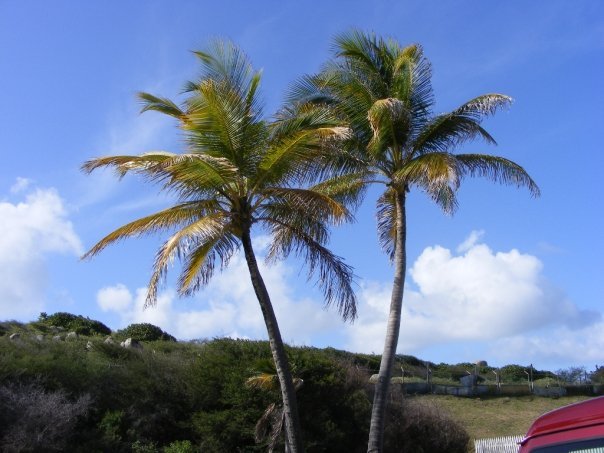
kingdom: Plantae
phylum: Tracheophyta
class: Liliopsida
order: Arecales
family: Arecaceae
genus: Cocos
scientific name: Cocos nucifera
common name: Coconut palm
